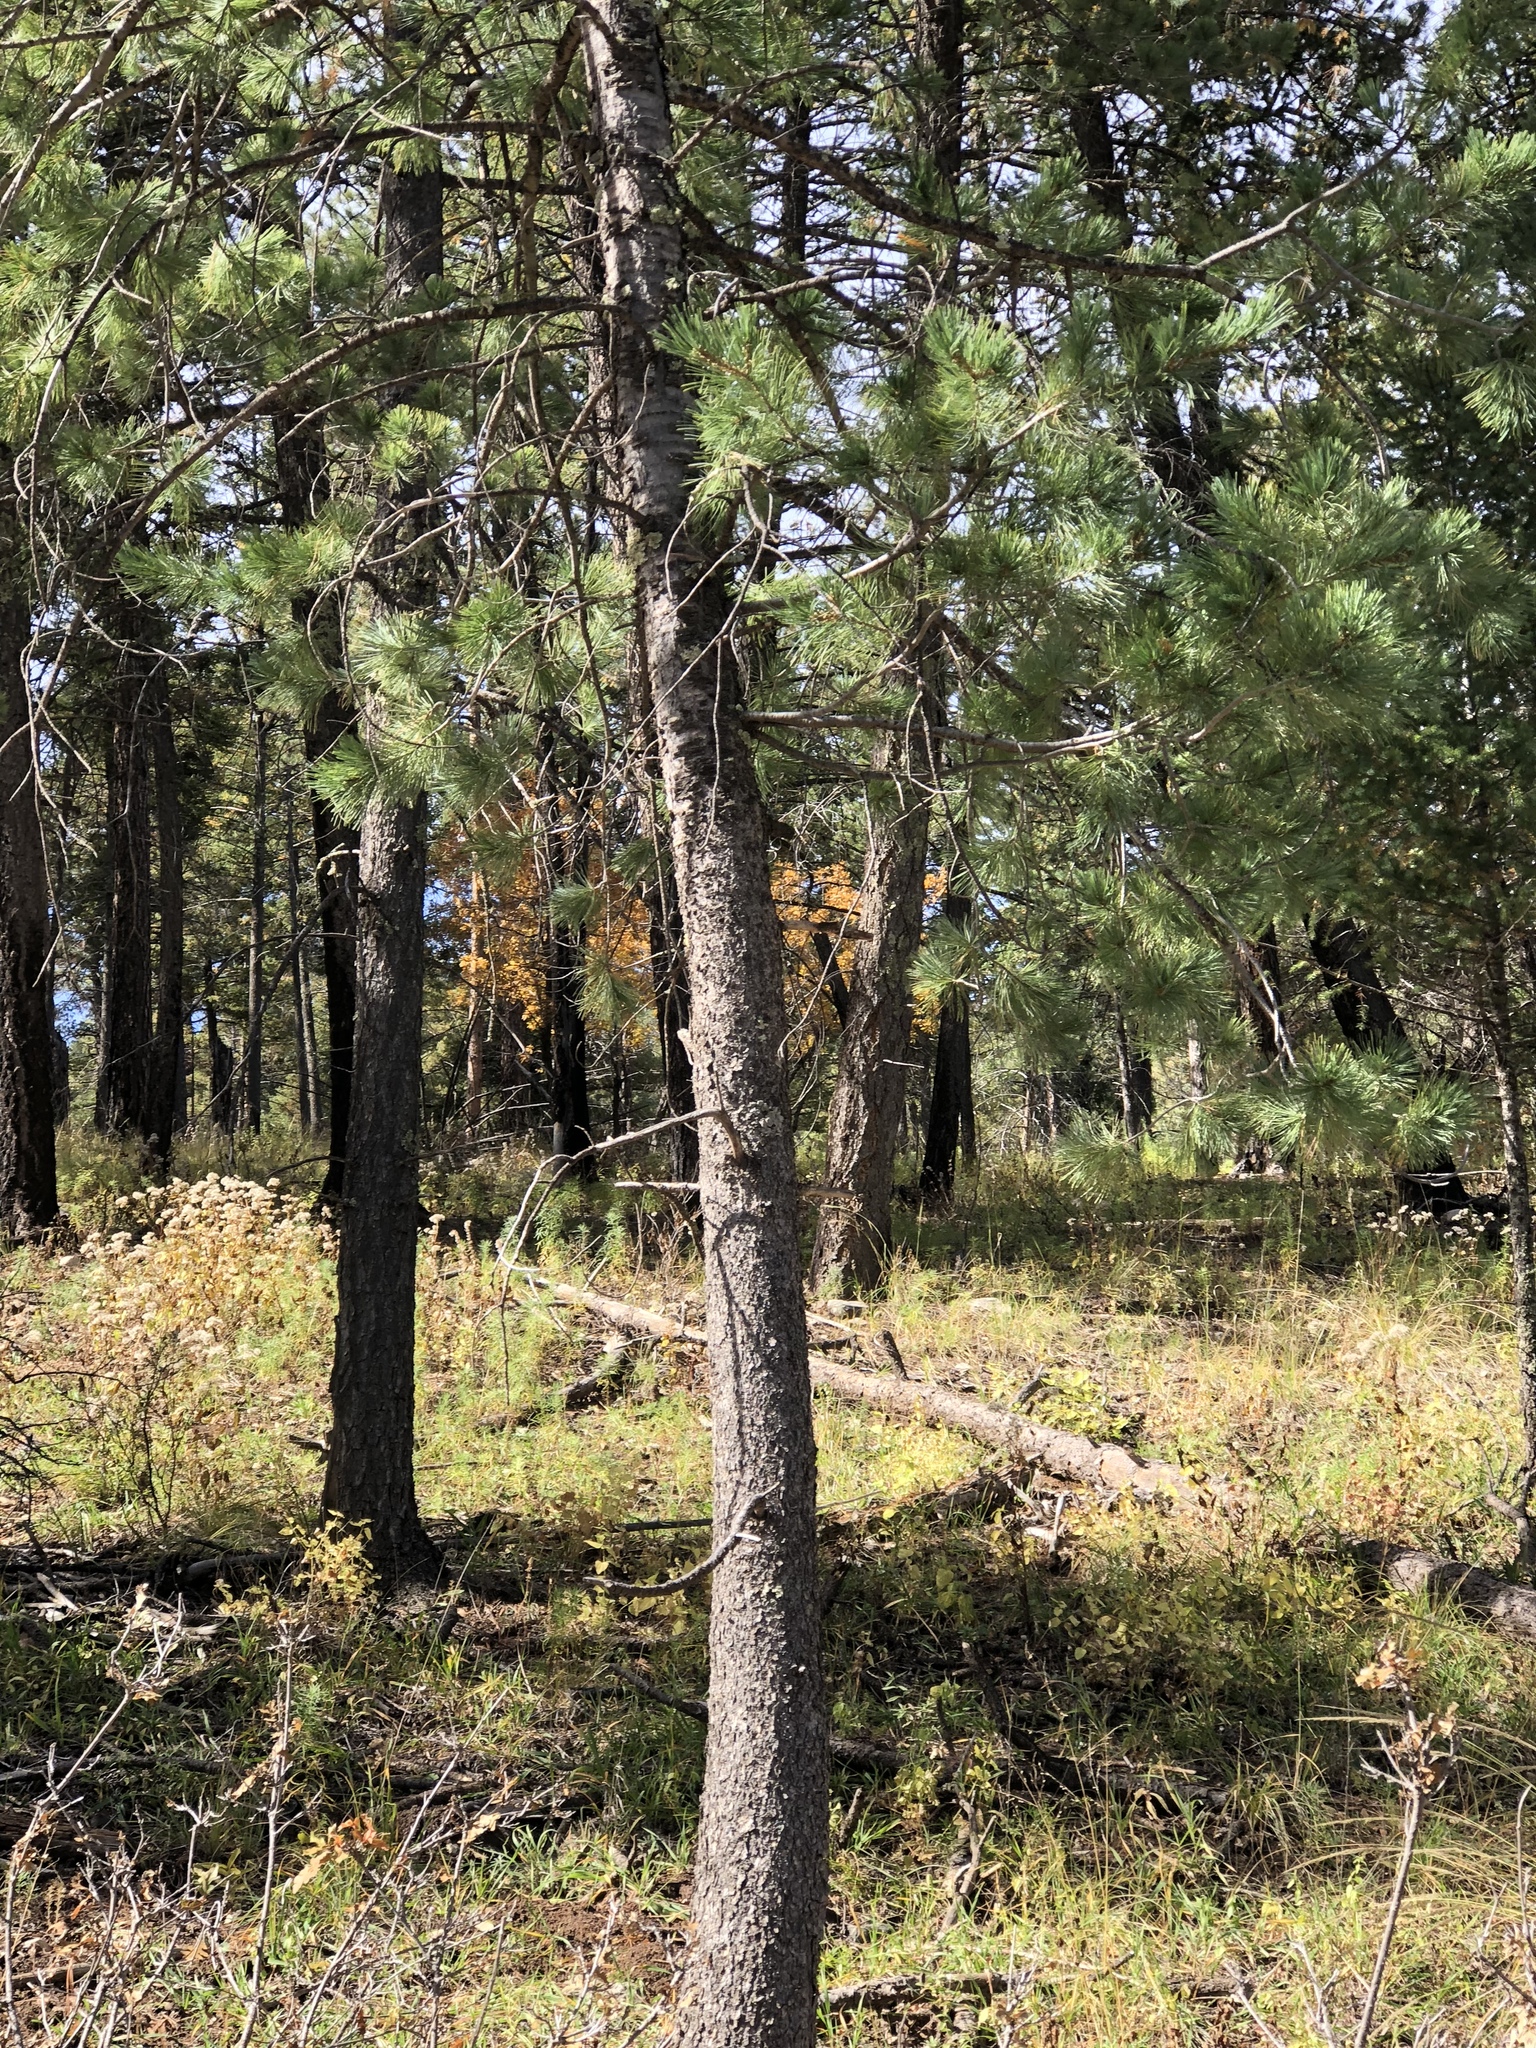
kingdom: Plantae
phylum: Tracheophyta
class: Pinopsida
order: Pinales
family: Pinaceae
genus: Pinus
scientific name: Pinus strobiformis
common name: Southwestern white pine
